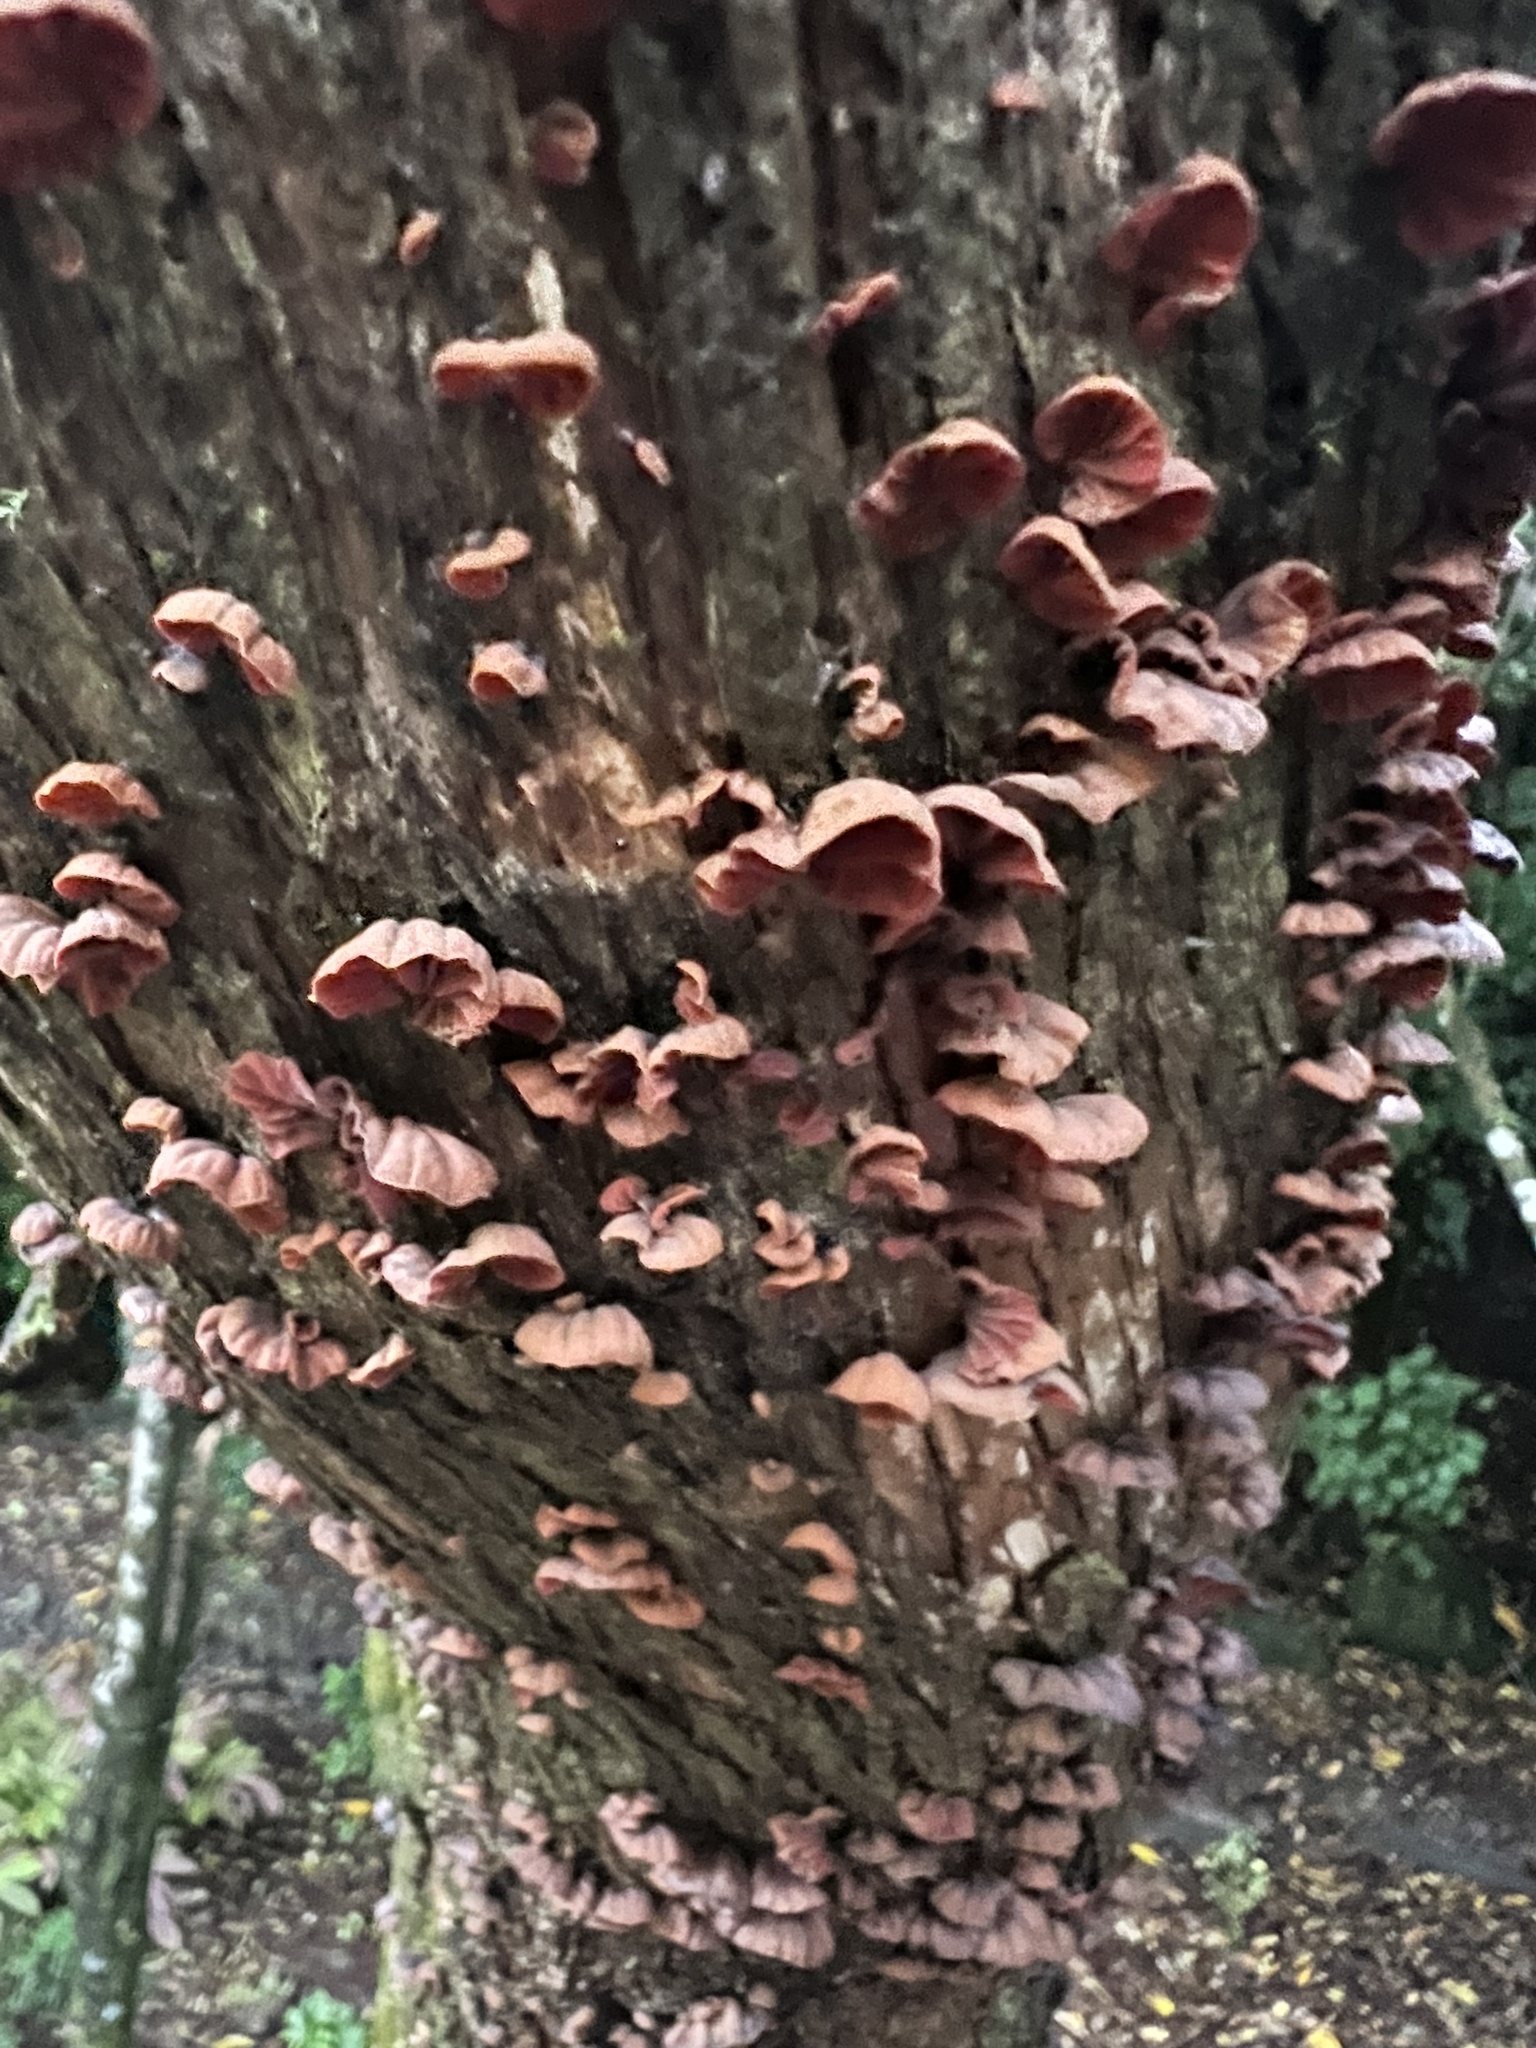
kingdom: Fungi
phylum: Basidiomycota
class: Agaricomycetes
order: Agaricales
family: Omphalotaceae
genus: Anthracophyllum
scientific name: Anthracophyllum archeri
